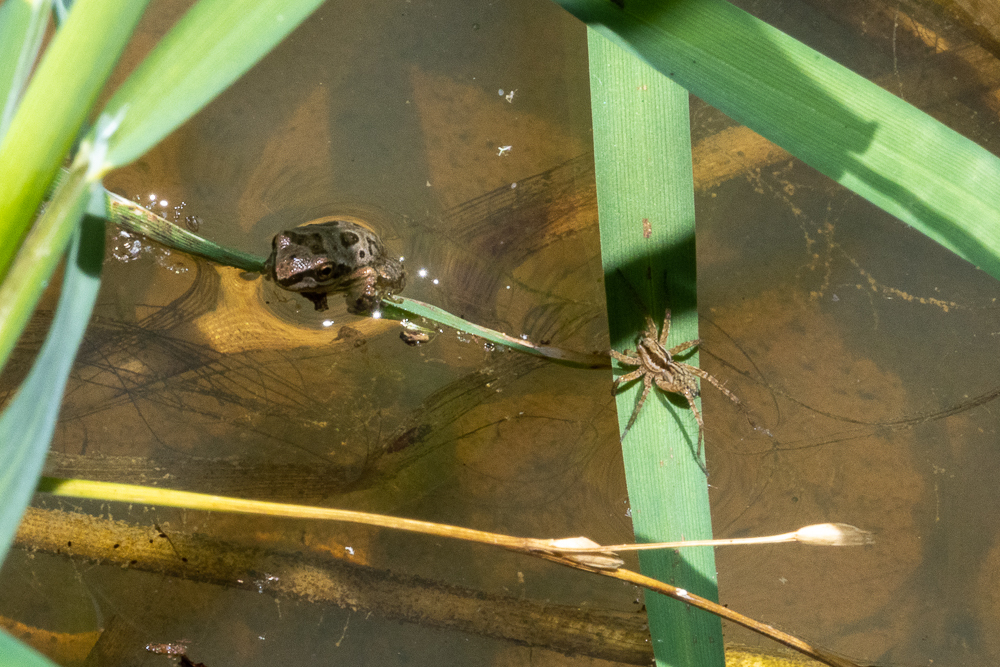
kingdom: Animalia
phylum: Chordata
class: Amphibia
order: Anura
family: Hylidae
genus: Pseudacris
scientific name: Pseudacris regilla
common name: Pacific chorus frog
